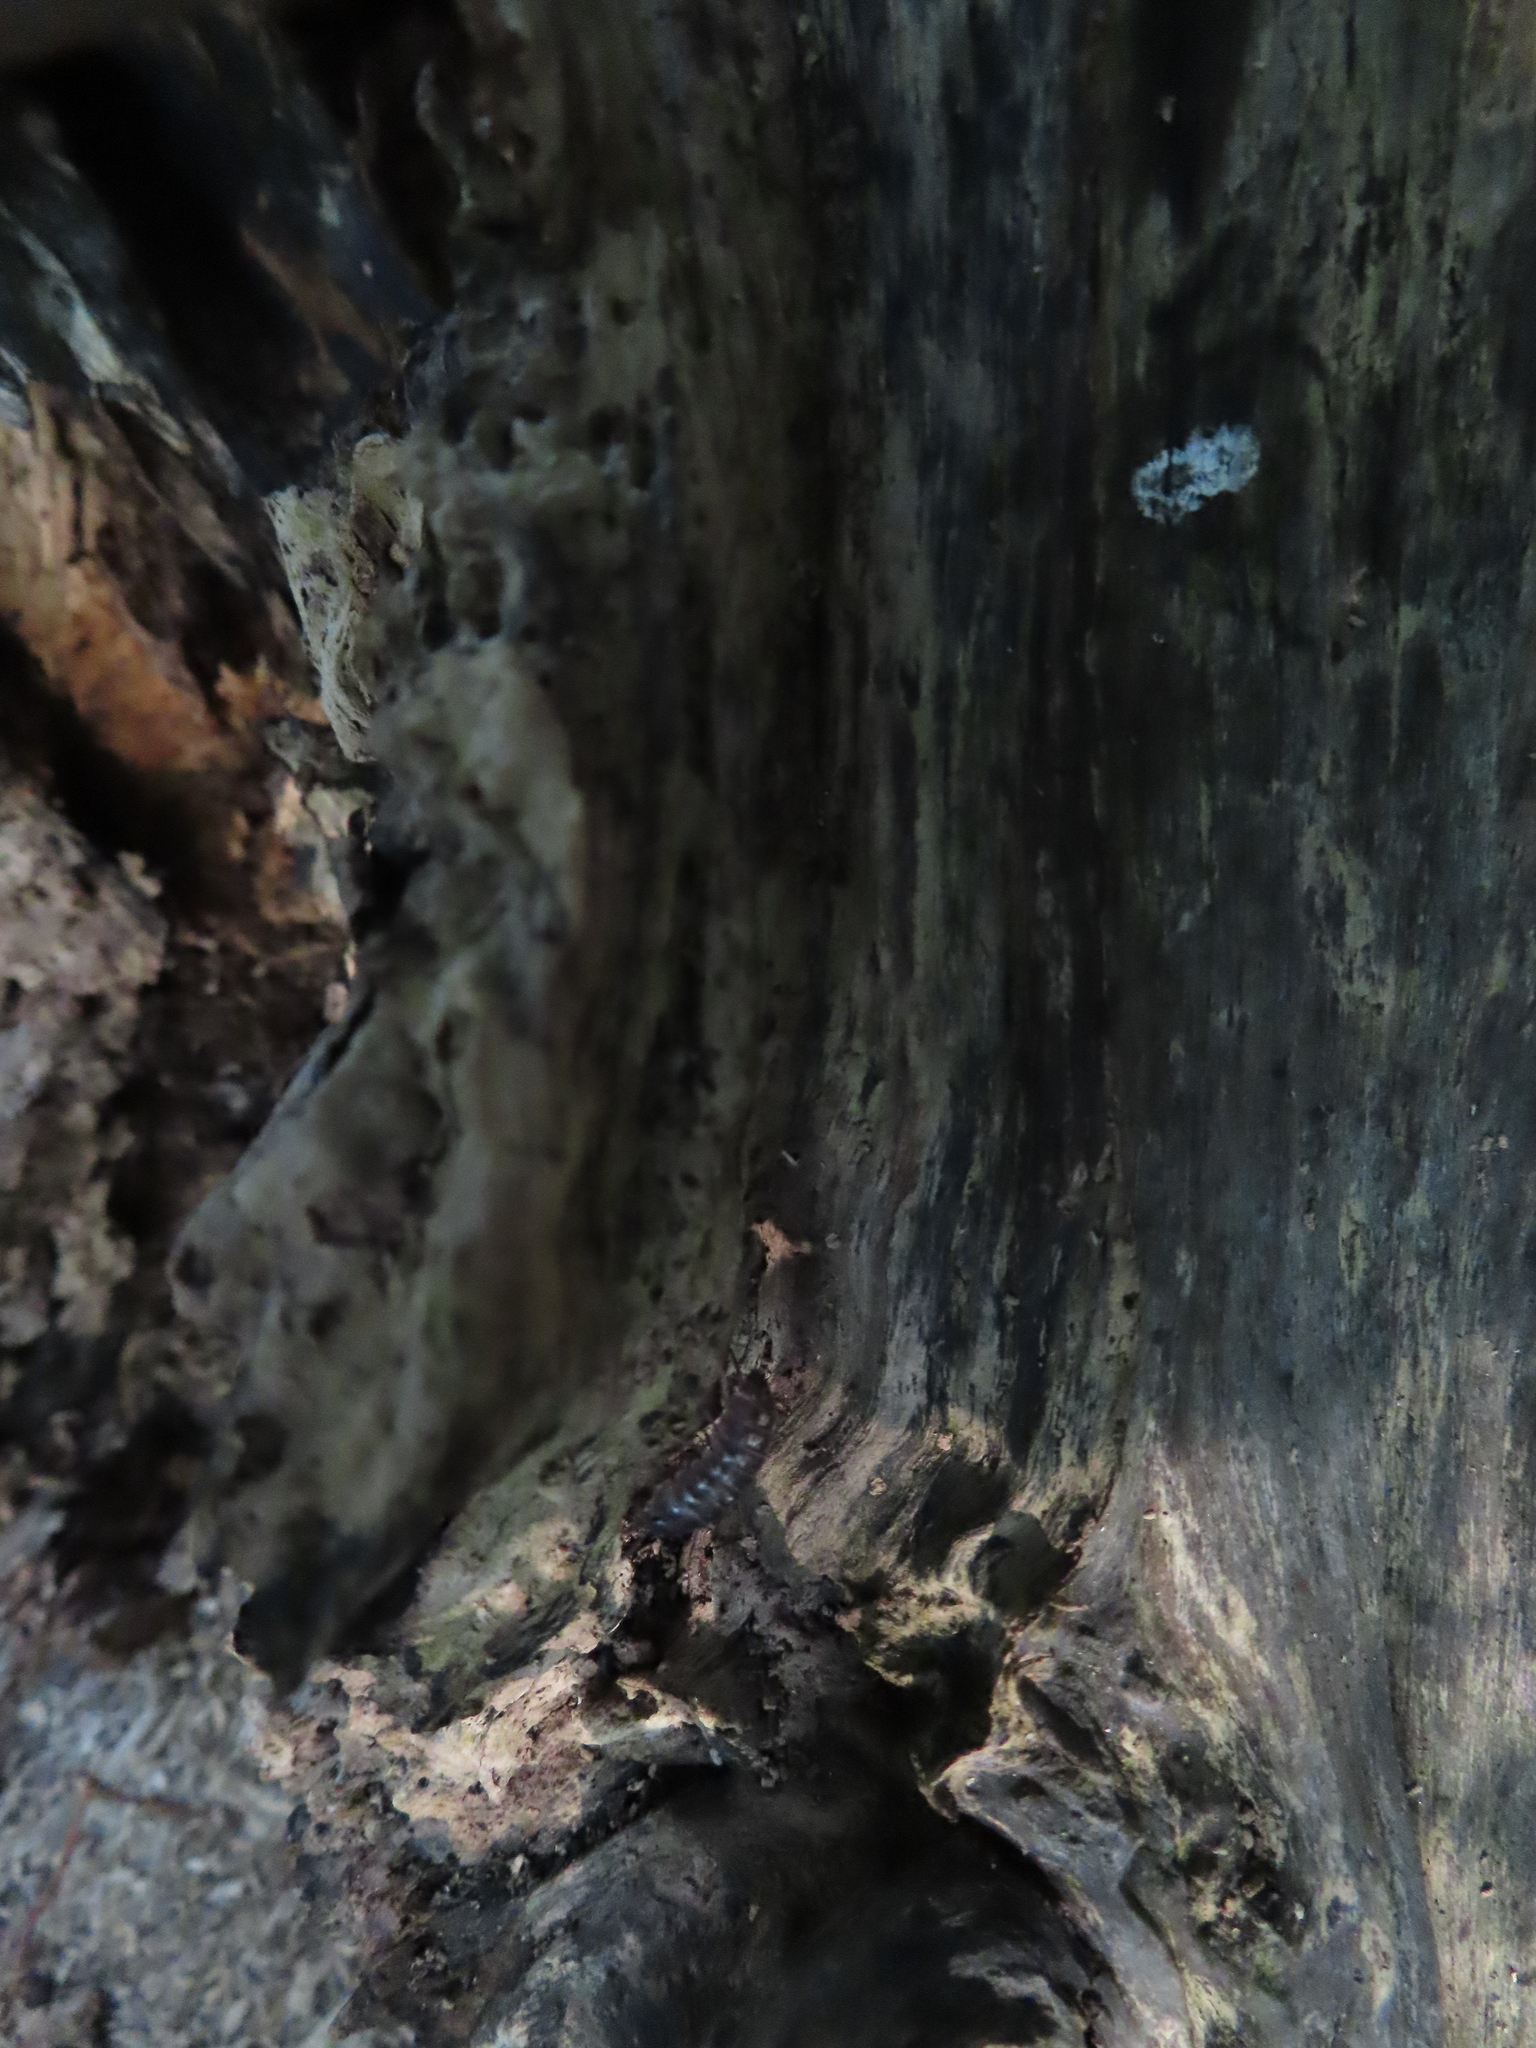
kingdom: Animalia
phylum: Arthropoda
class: Malacostraca
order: Isopoda
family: Armadillidiidae
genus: Armadillidium
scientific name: Armadillidium vulgare
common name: Common pill woodlouse
